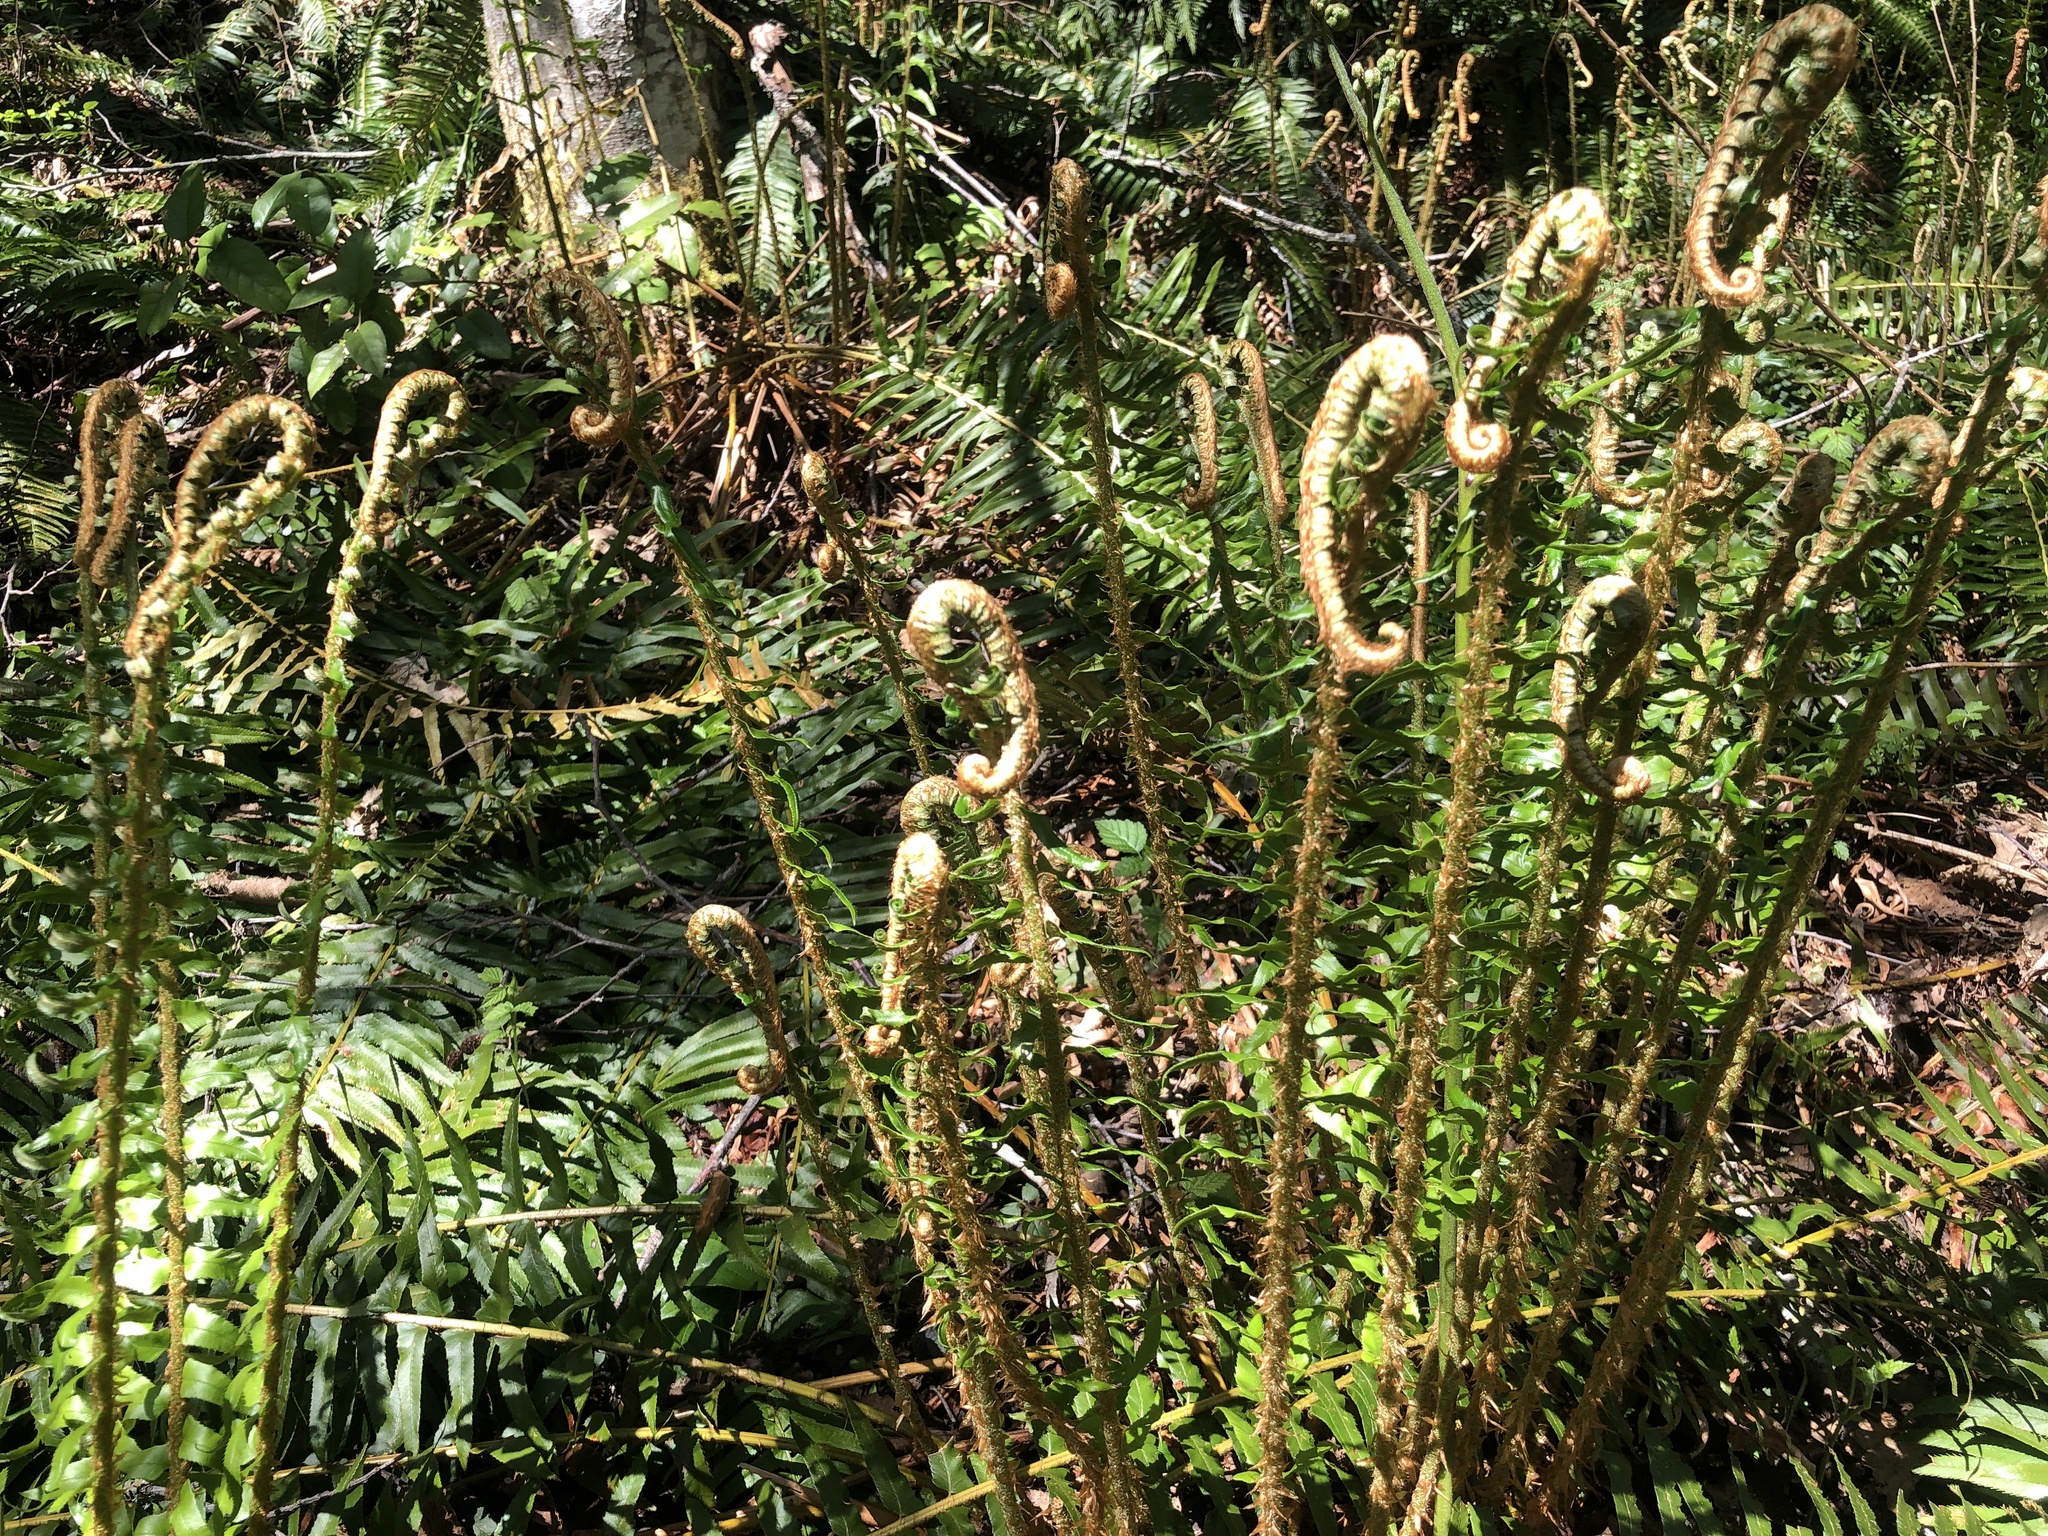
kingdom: Plantae
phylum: Tracheophyta
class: Polypodiopsida
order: Polypodiales
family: Dryopteridaceae
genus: Polystichum
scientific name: Polystichum munitum
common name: Western sword-fern
